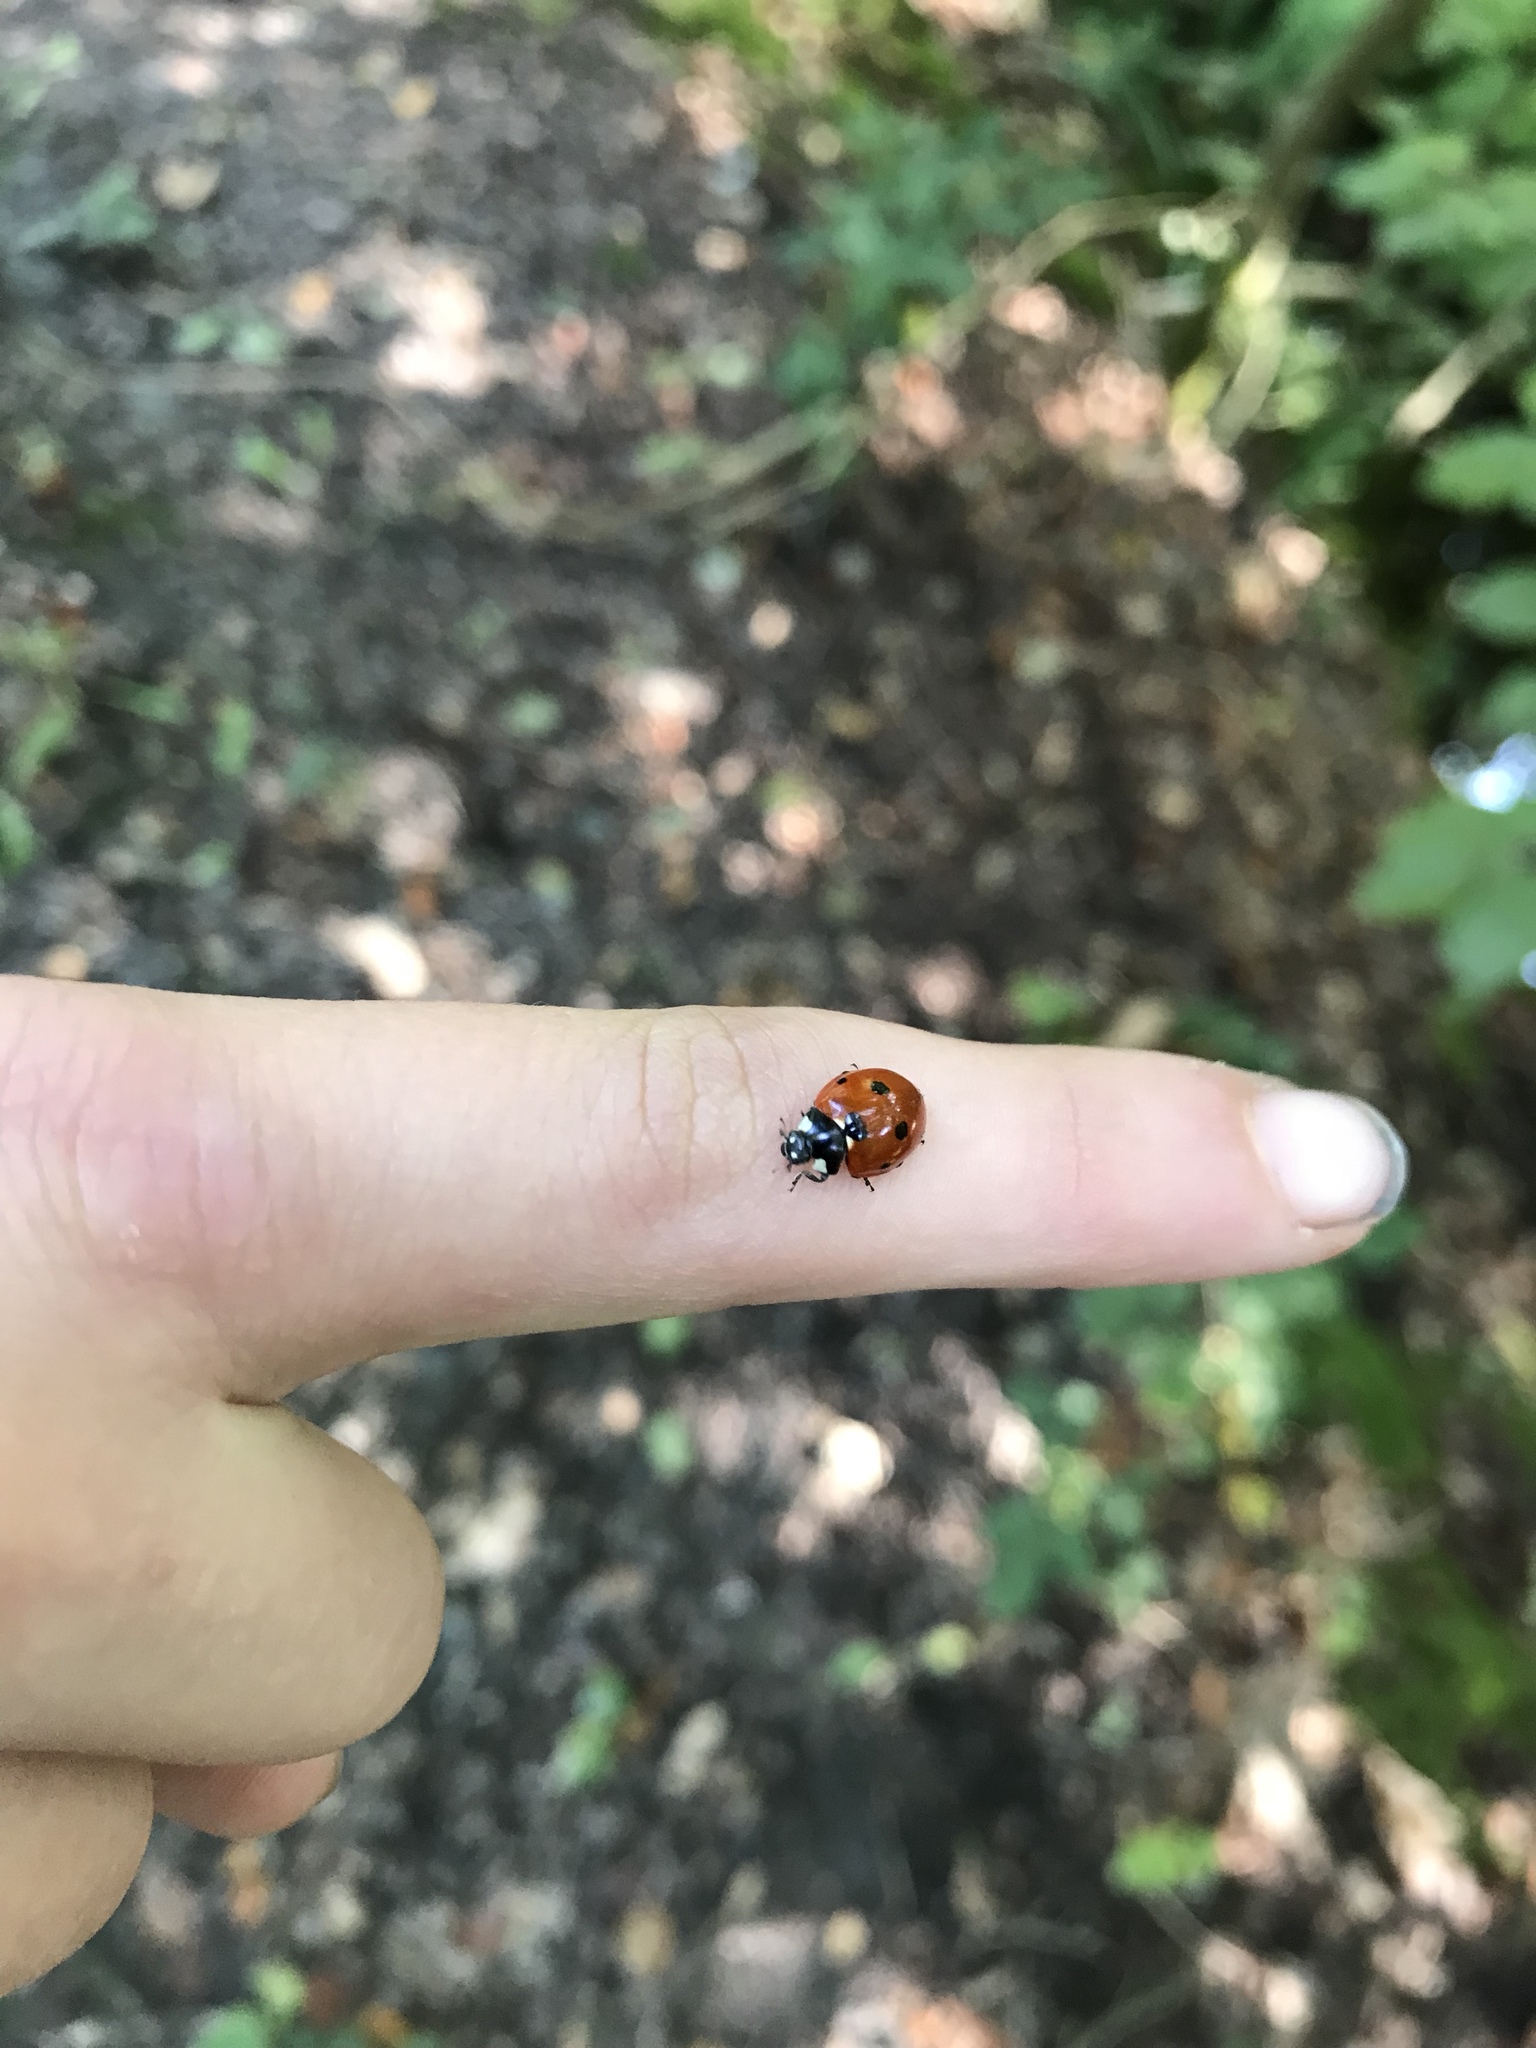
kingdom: Animalia
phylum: Arthropoda
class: Insecta
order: Coleoptera
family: Coccinellidae
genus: Coccinella
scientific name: Coccinella septempunctata
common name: Sevenspotted lady beetle
